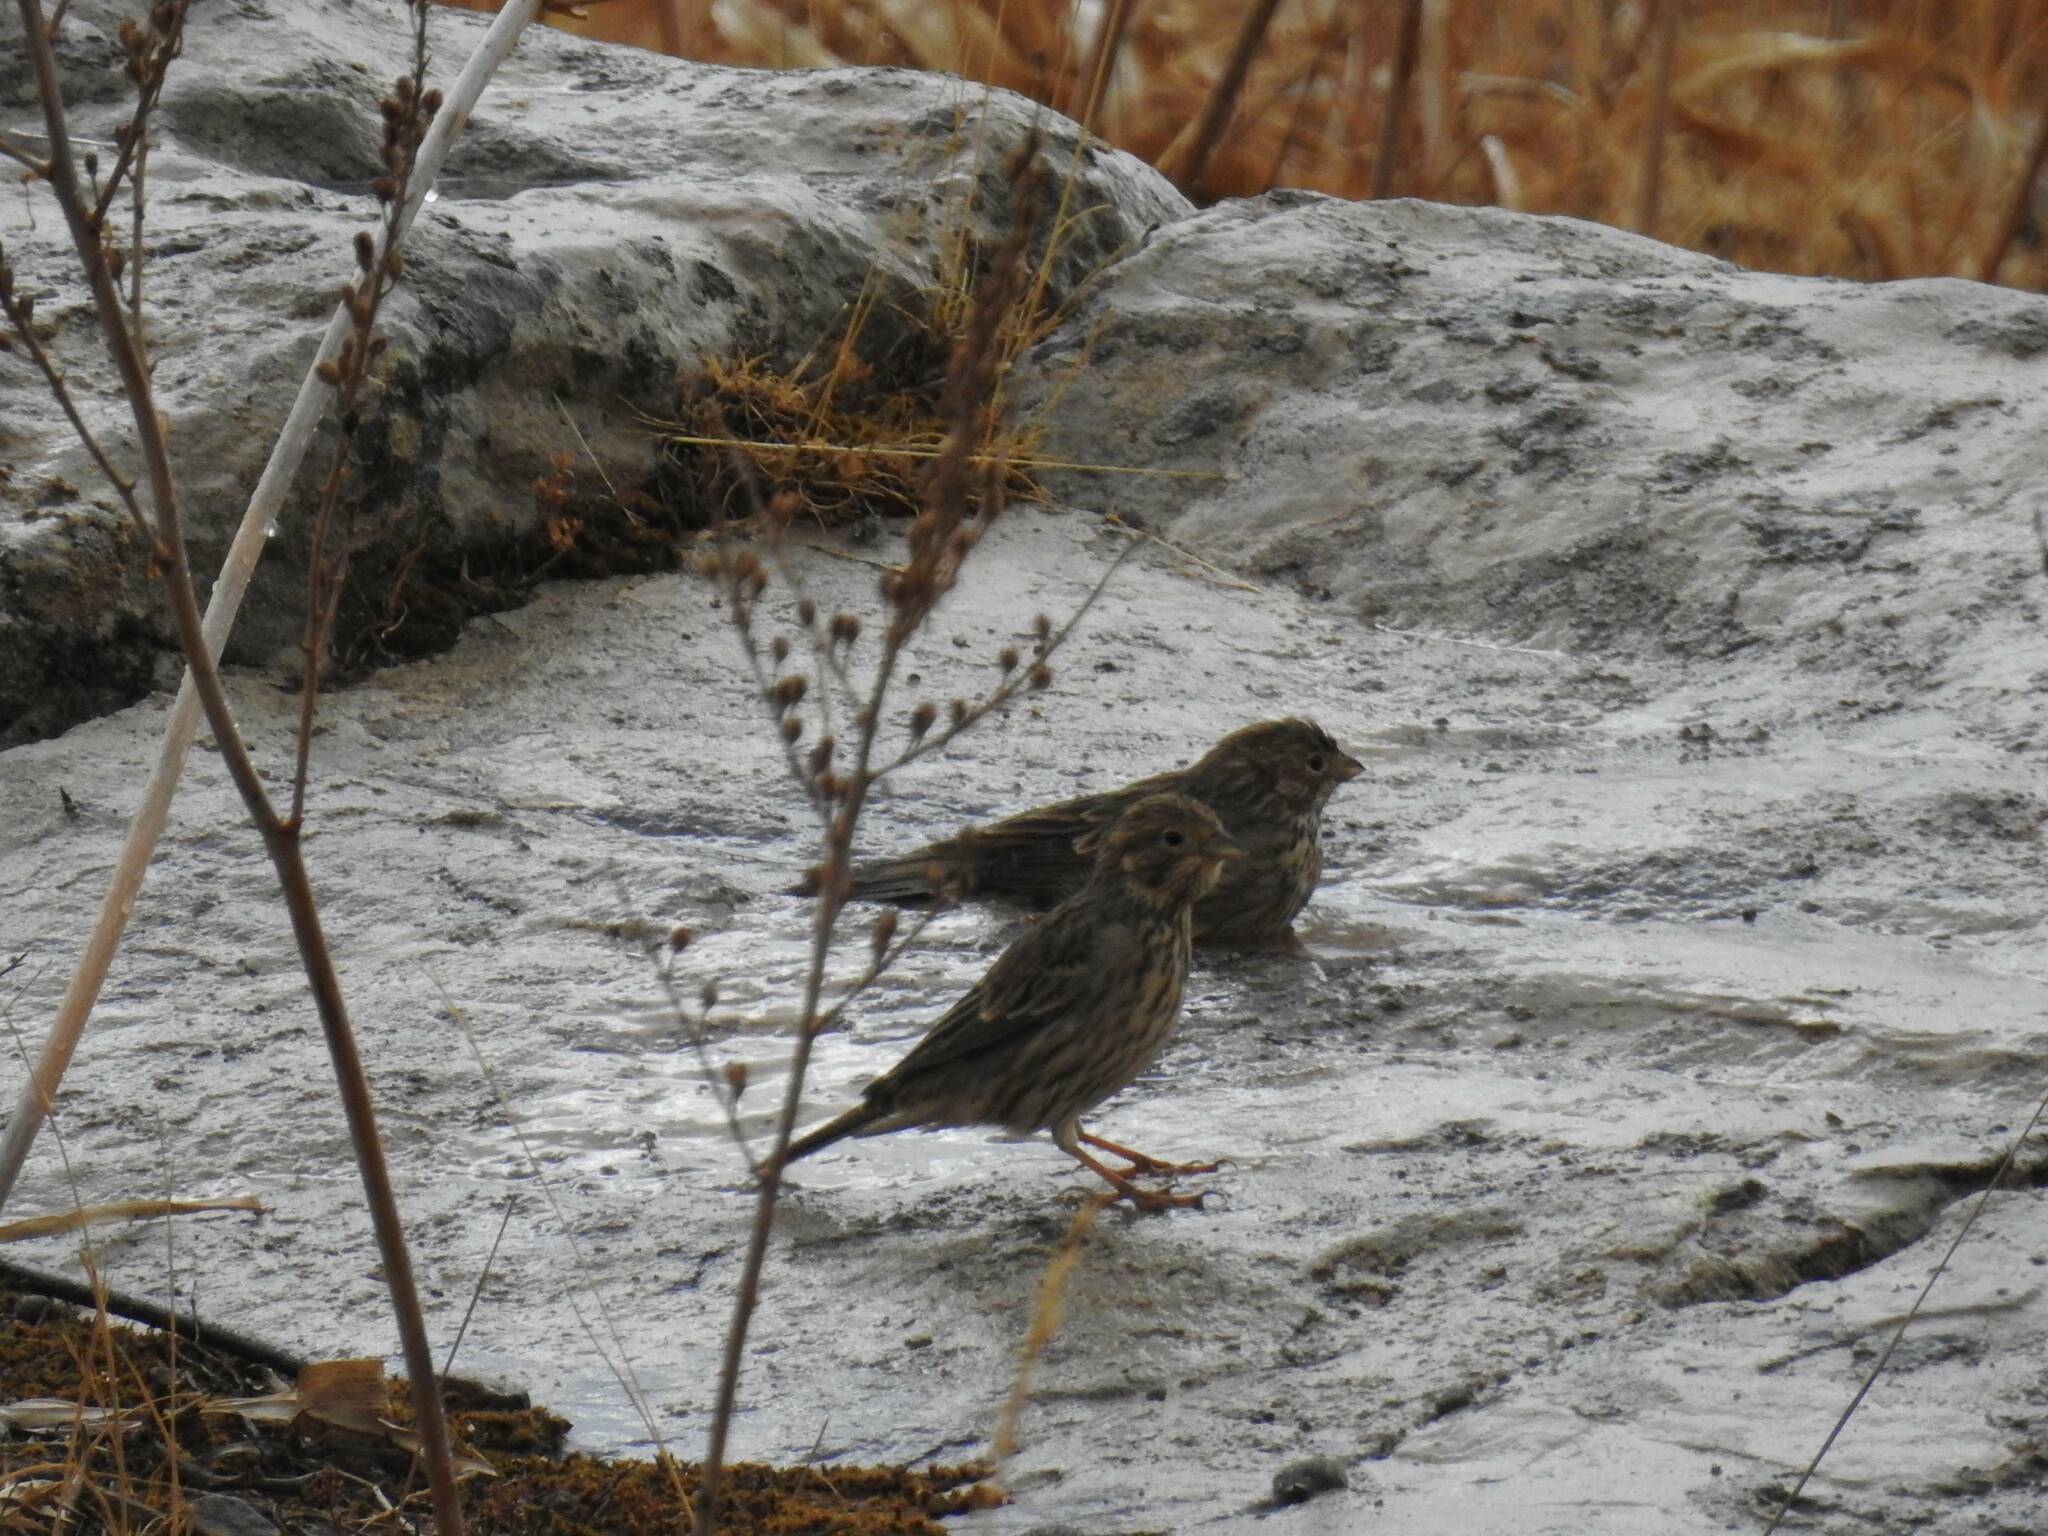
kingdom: Animalia
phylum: Chordata
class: Aves
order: Passeriformes
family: Emberizidae
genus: Emberiza
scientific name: Emberiza calandra
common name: Corn bunting
